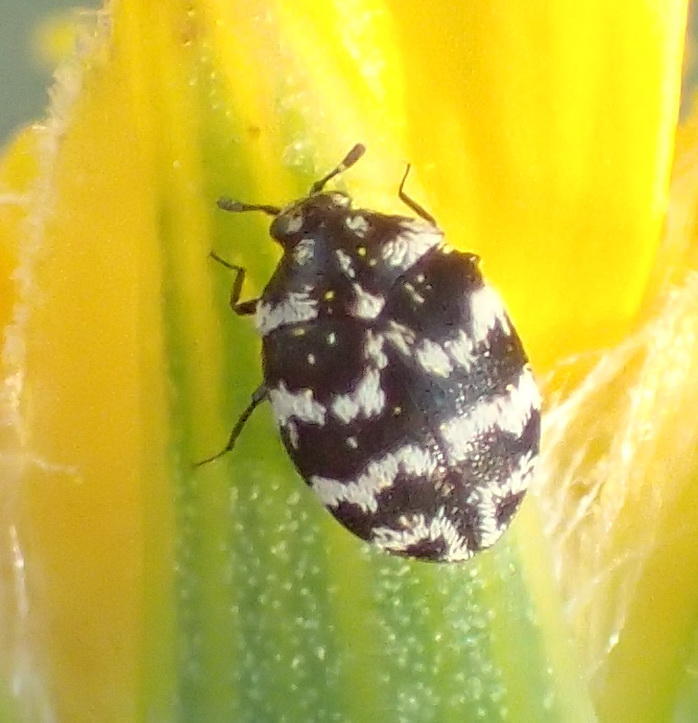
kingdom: Animalia
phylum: Arthropoda
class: Insecta
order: Coleoptera
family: Dermestidae
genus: Anthrenus
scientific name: Anthrenus
